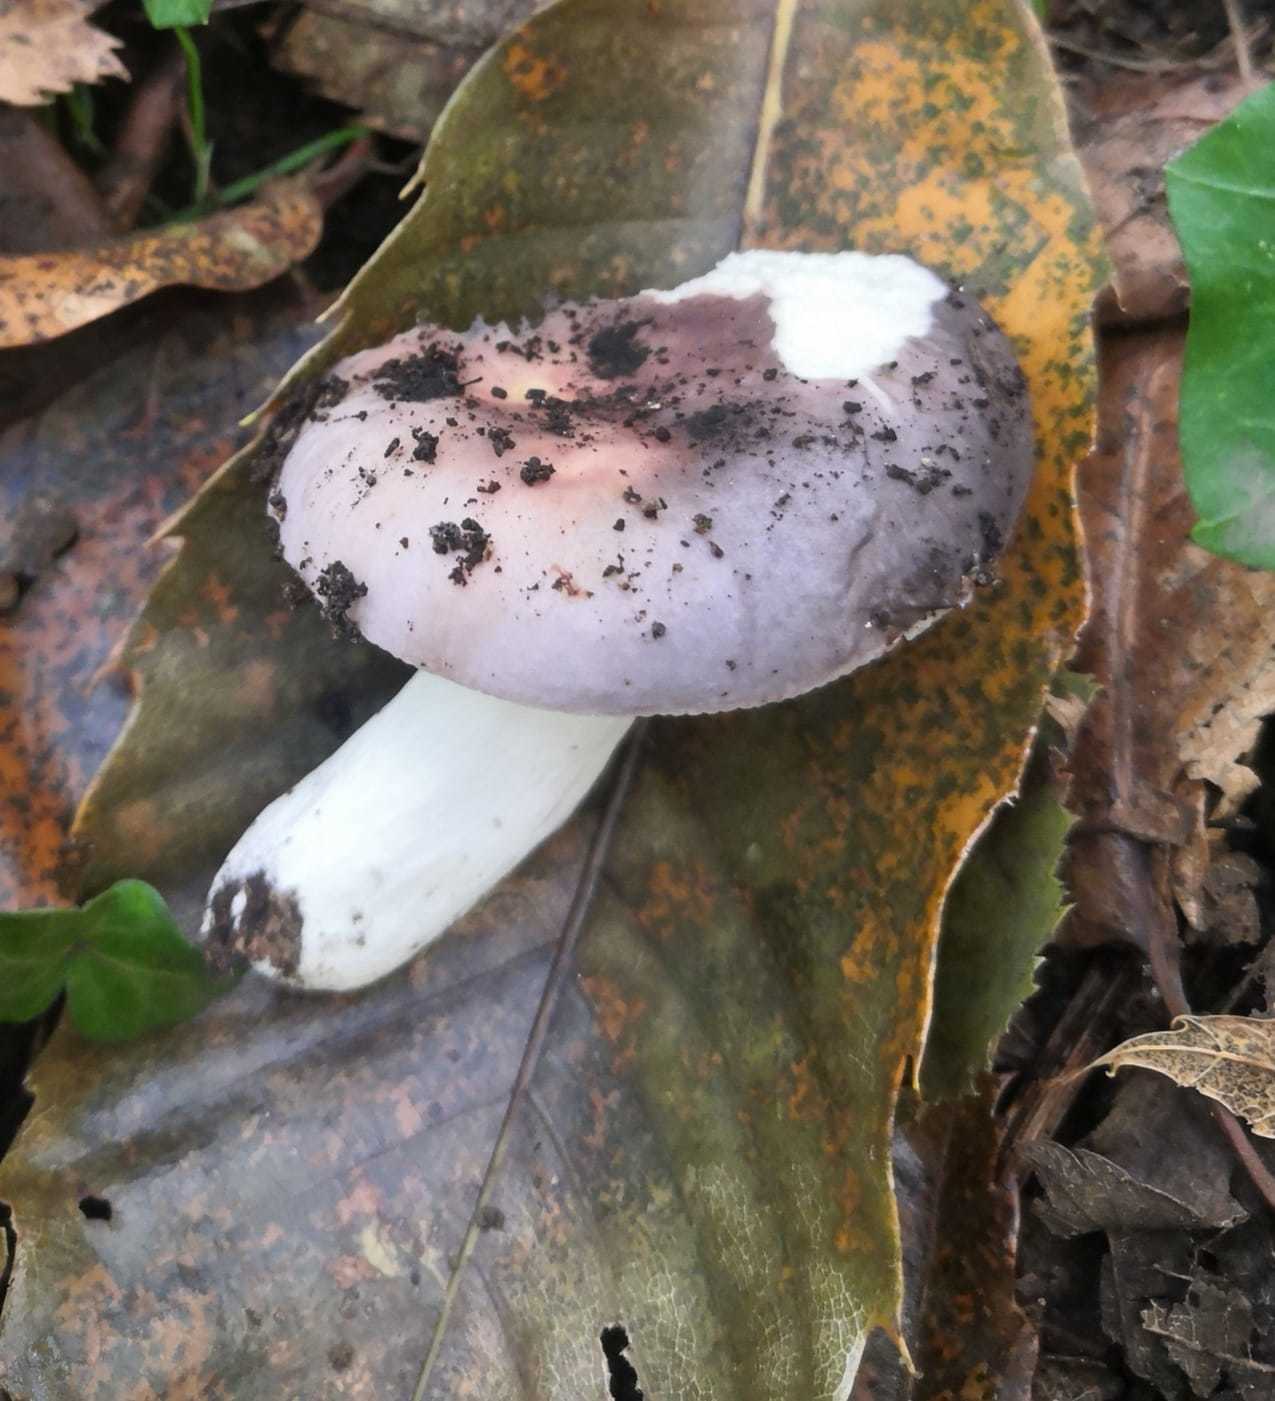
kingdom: Fungi
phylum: Basidiomycota
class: Agaricomycetes
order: Russulales
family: Russulaceae
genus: Russula
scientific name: Russula cyanoxantha
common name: Charcoal burner
